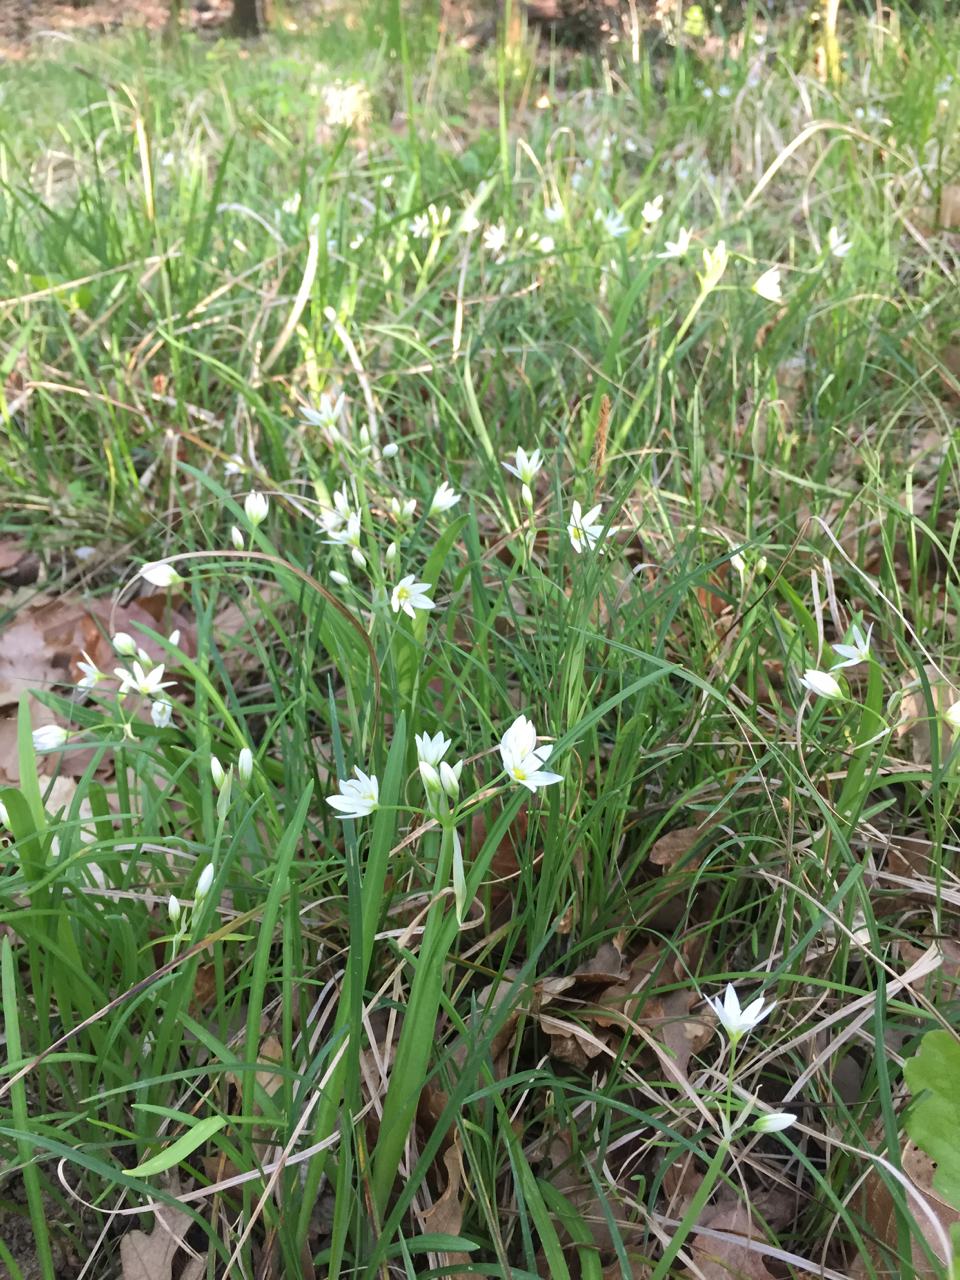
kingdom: Plantae
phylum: Tracheophyta
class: Liliopsida
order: Asparagales
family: Asparagaceae
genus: Ornithogalum
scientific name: Ornithogalum umbellatum
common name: Garden star-of-bethlehem
